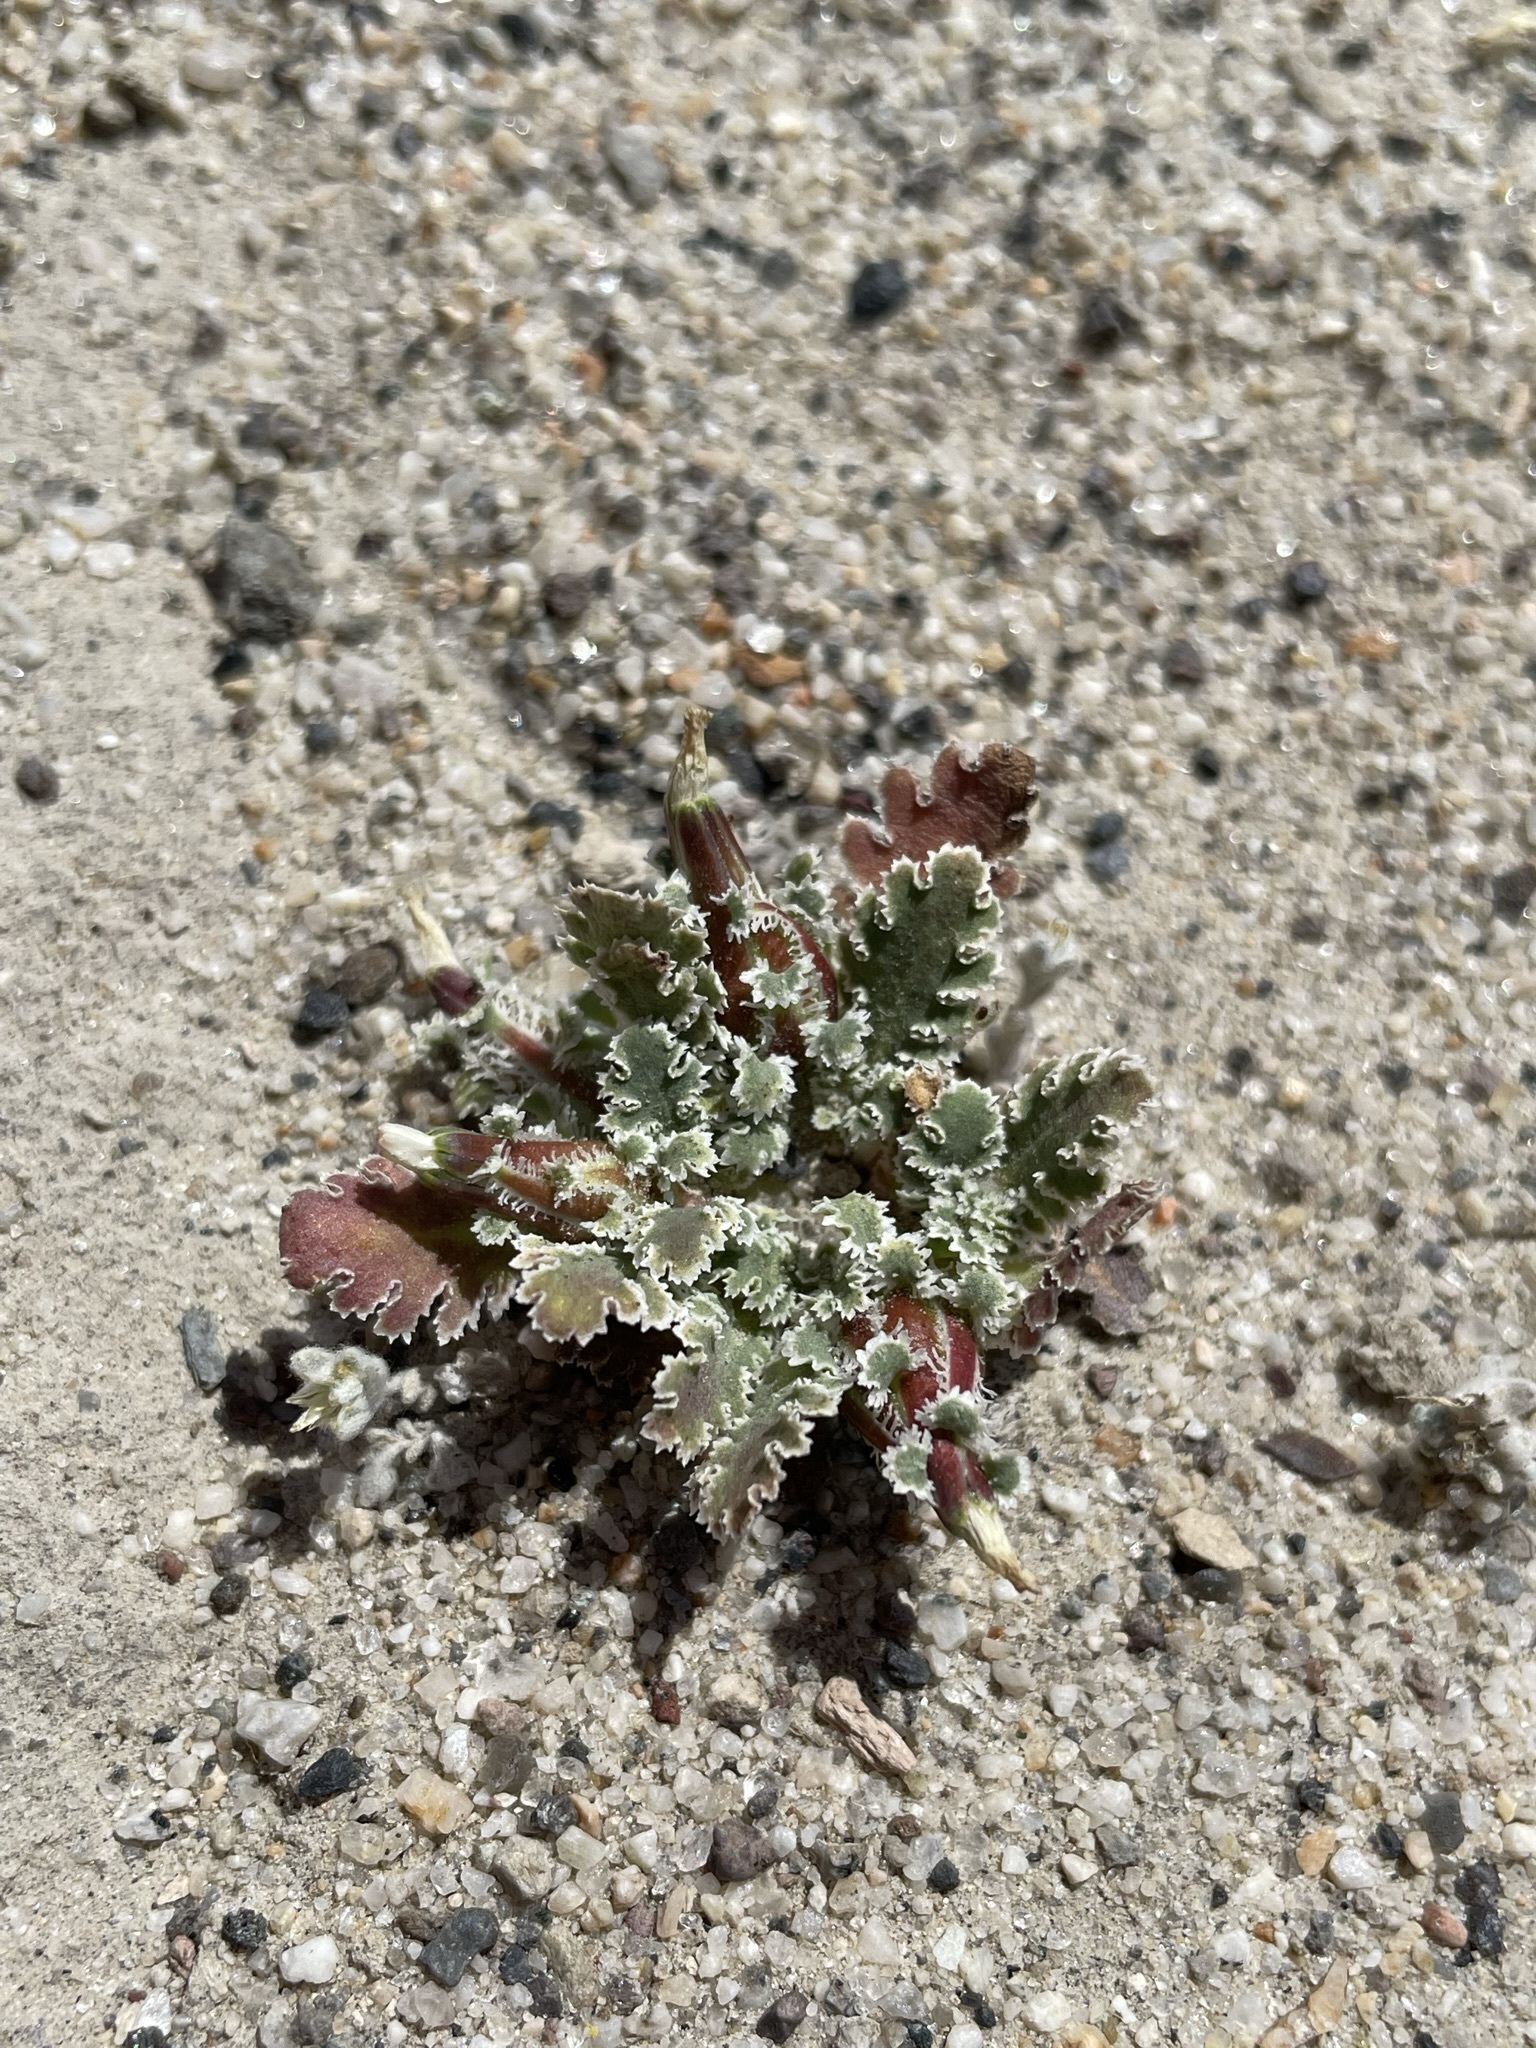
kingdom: Plantae
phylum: Tracheophyta
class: Magnoliopsida
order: Asterales
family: Asteraceae
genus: Glyptopleura
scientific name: Glyptopleura marginata
